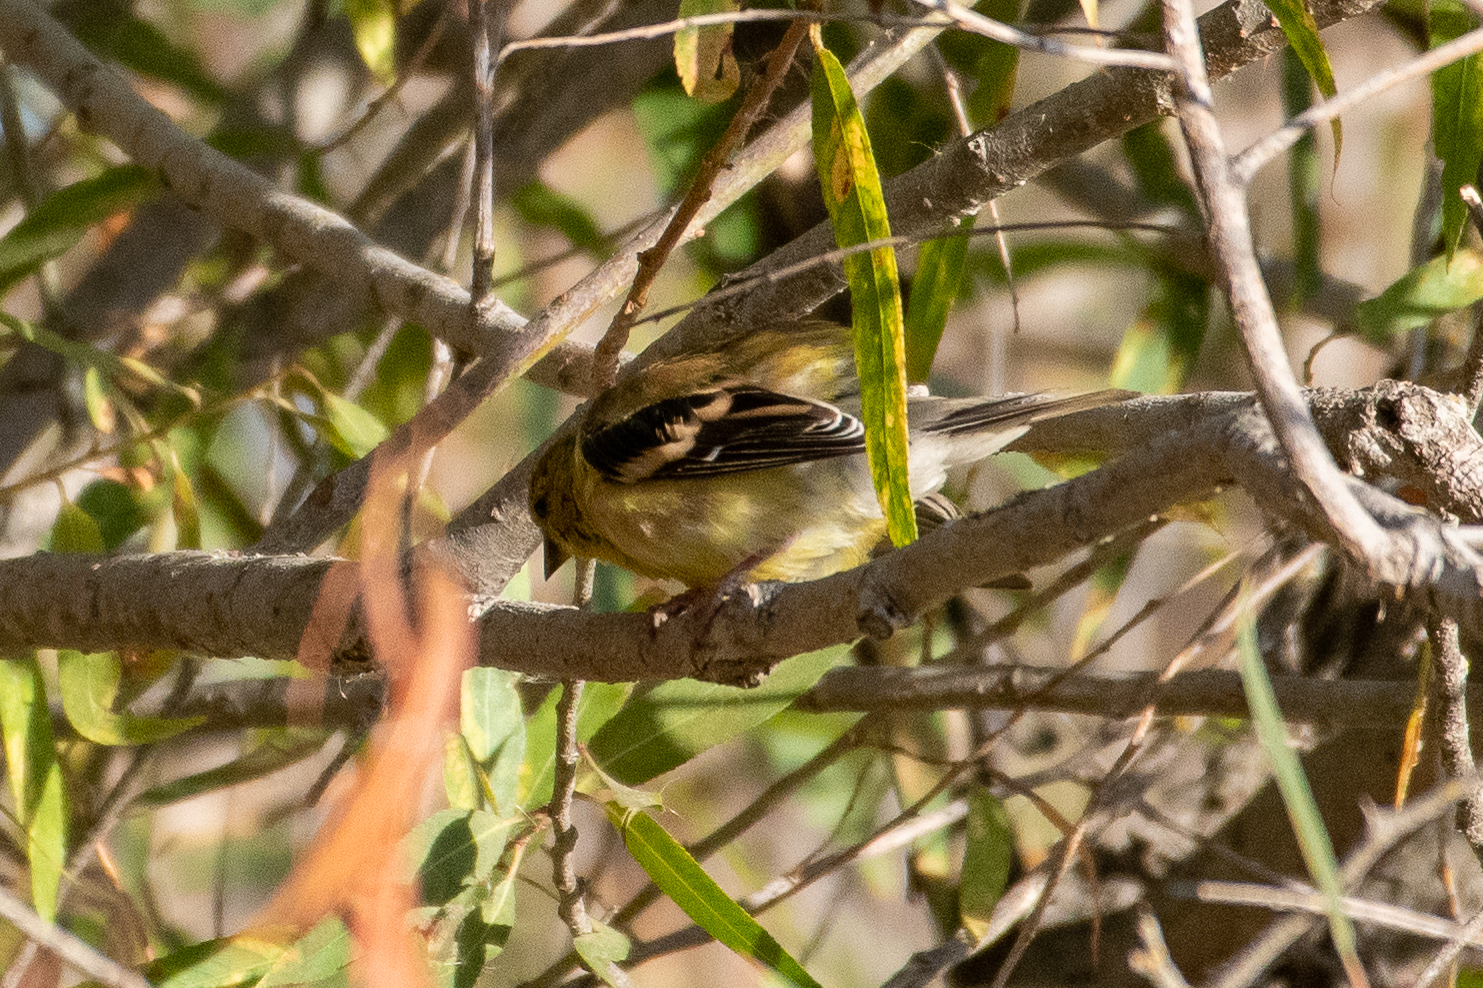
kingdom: Animalia
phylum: Chordata
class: Aves
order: Passeriformes
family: Fringillidae
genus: Spinus
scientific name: Spinus tristis
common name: American goldfinch
